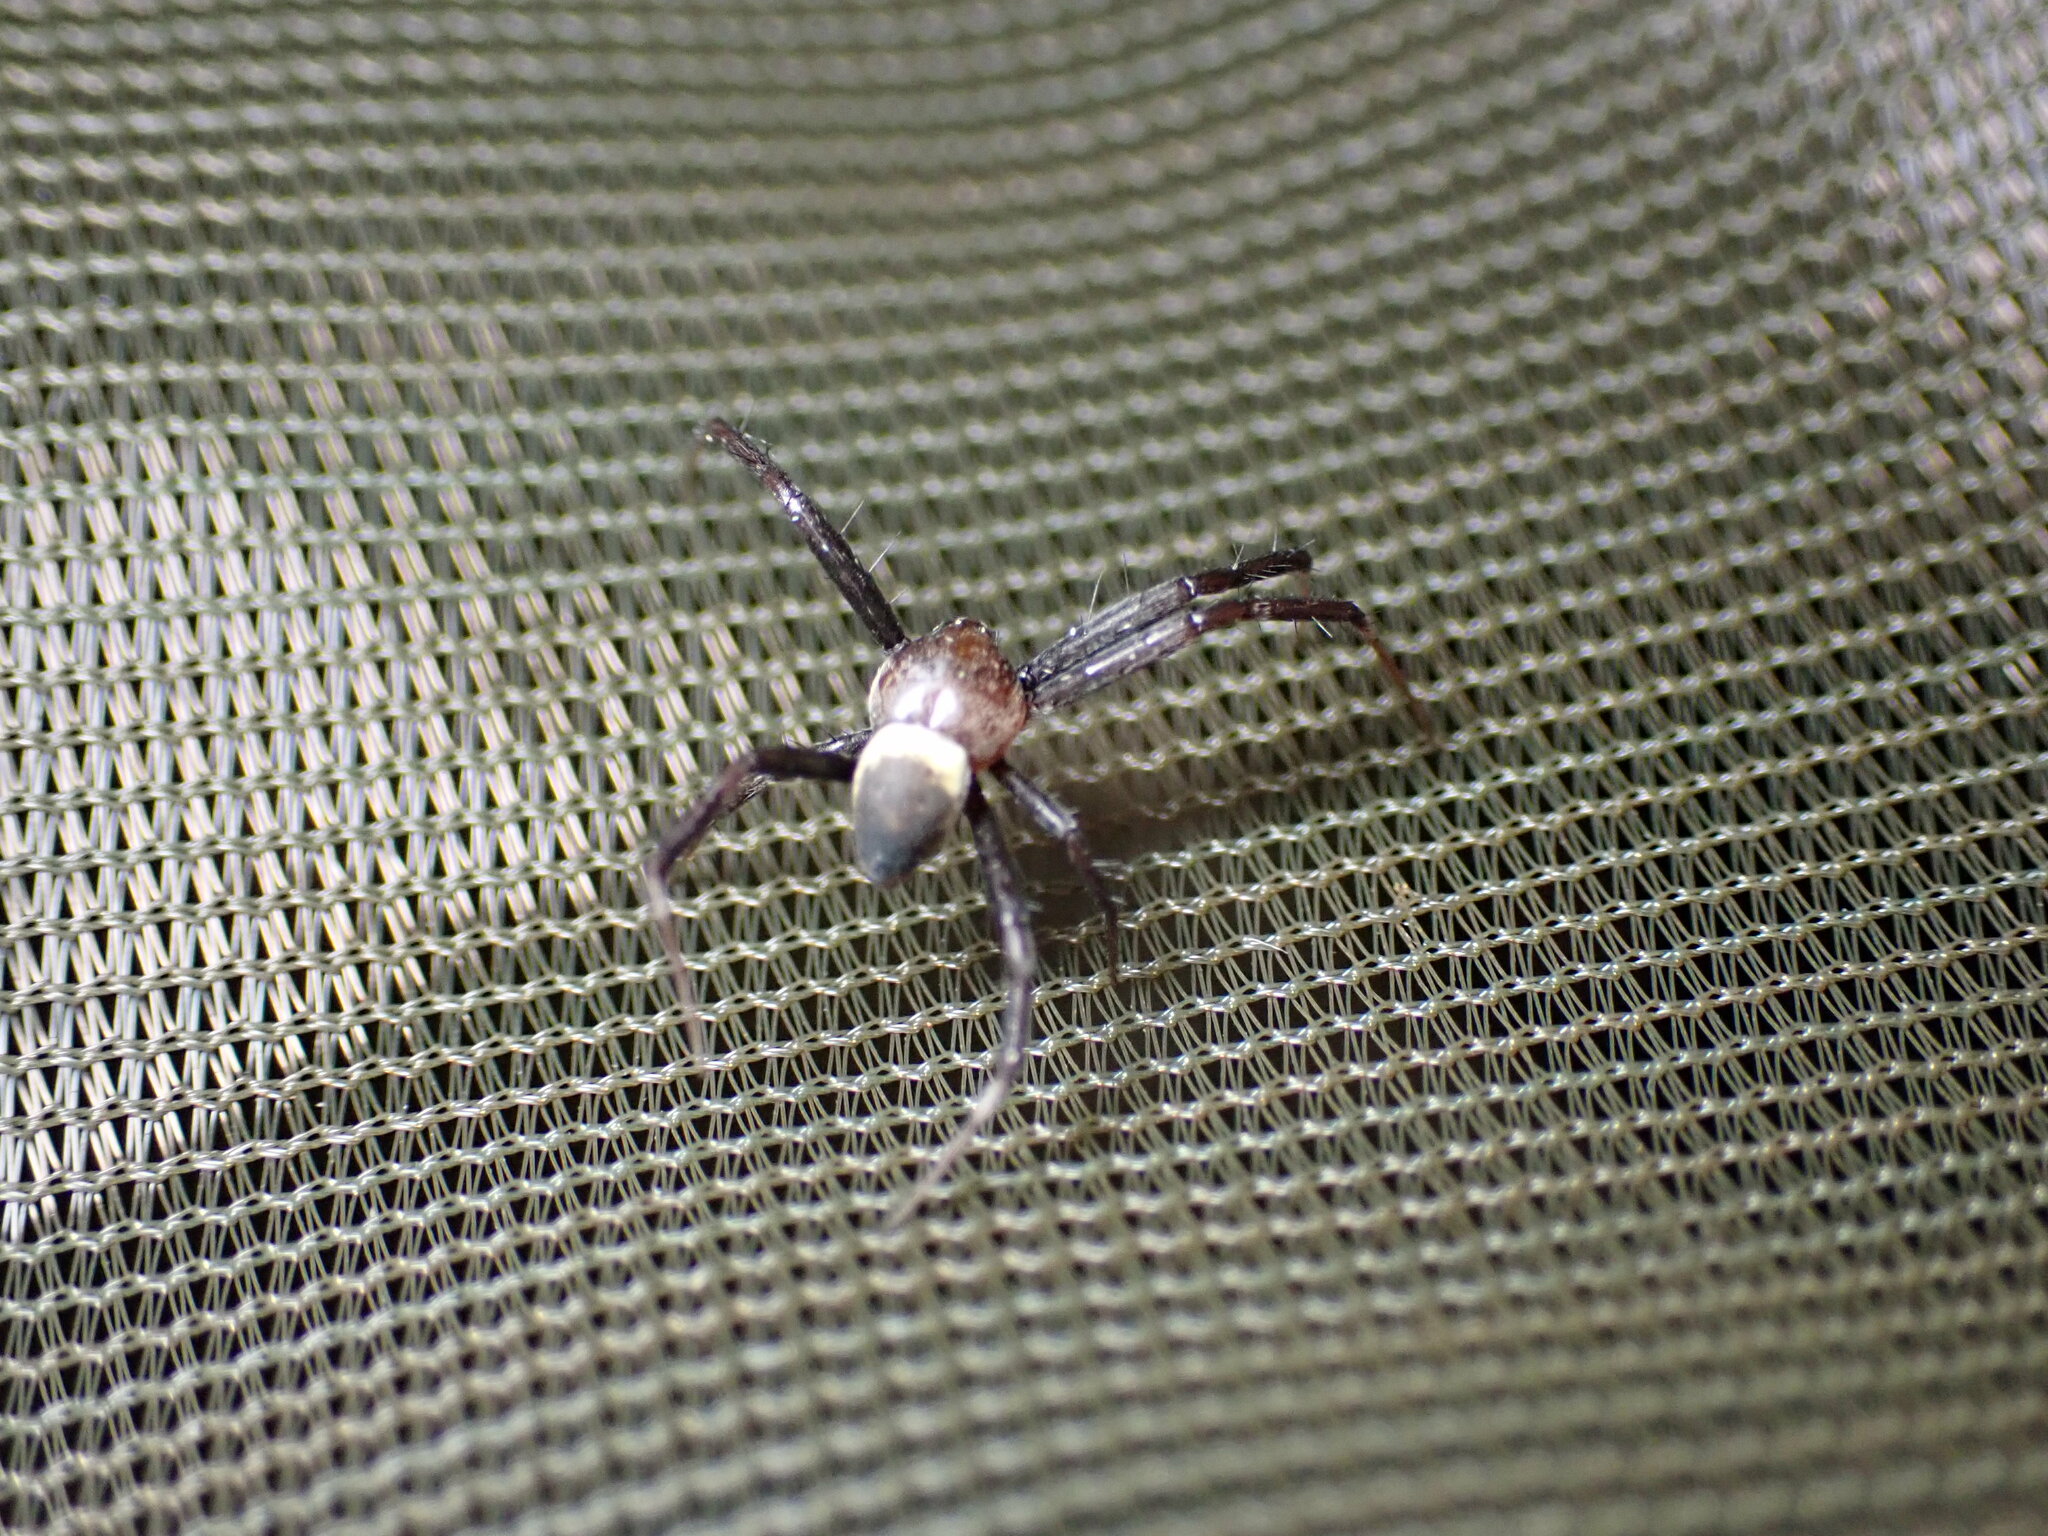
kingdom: Animalia
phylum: Arthropoda
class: Arachnida
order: Araneae
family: Araneidae
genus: Argiope
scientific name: Argiope aemula
